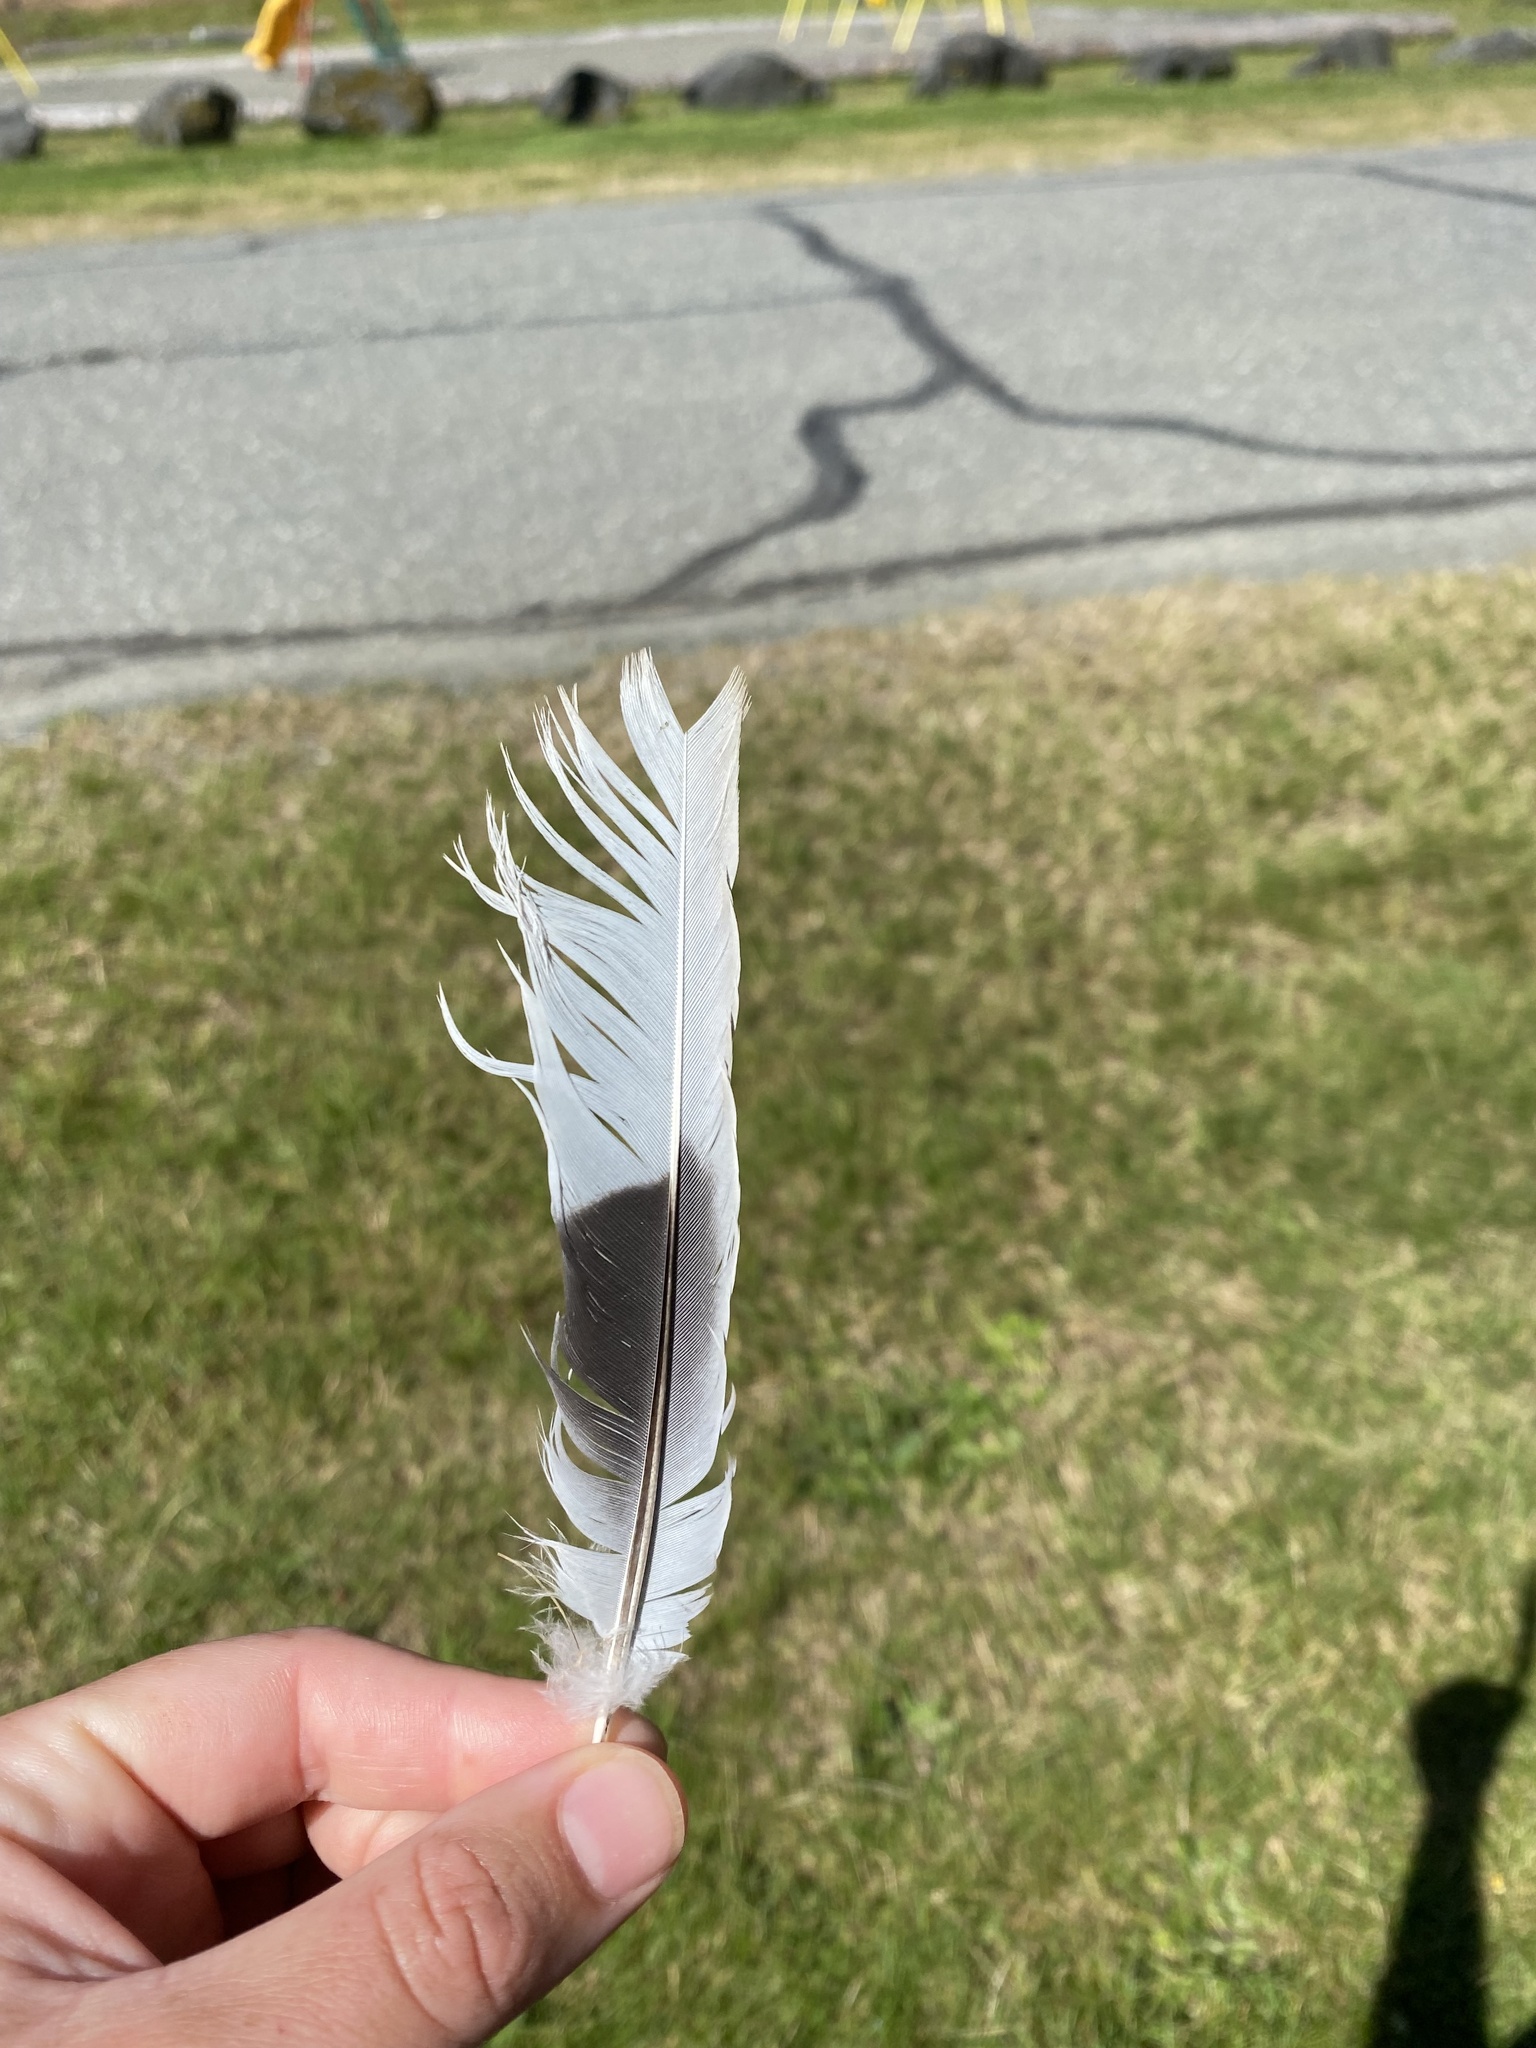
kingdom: Animalia
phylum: Chordata
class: Aves
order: Columbiformes
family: Columbidae
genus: Streptopelia
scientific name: Streptopelia decaocto
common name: Eurasian collared dove
